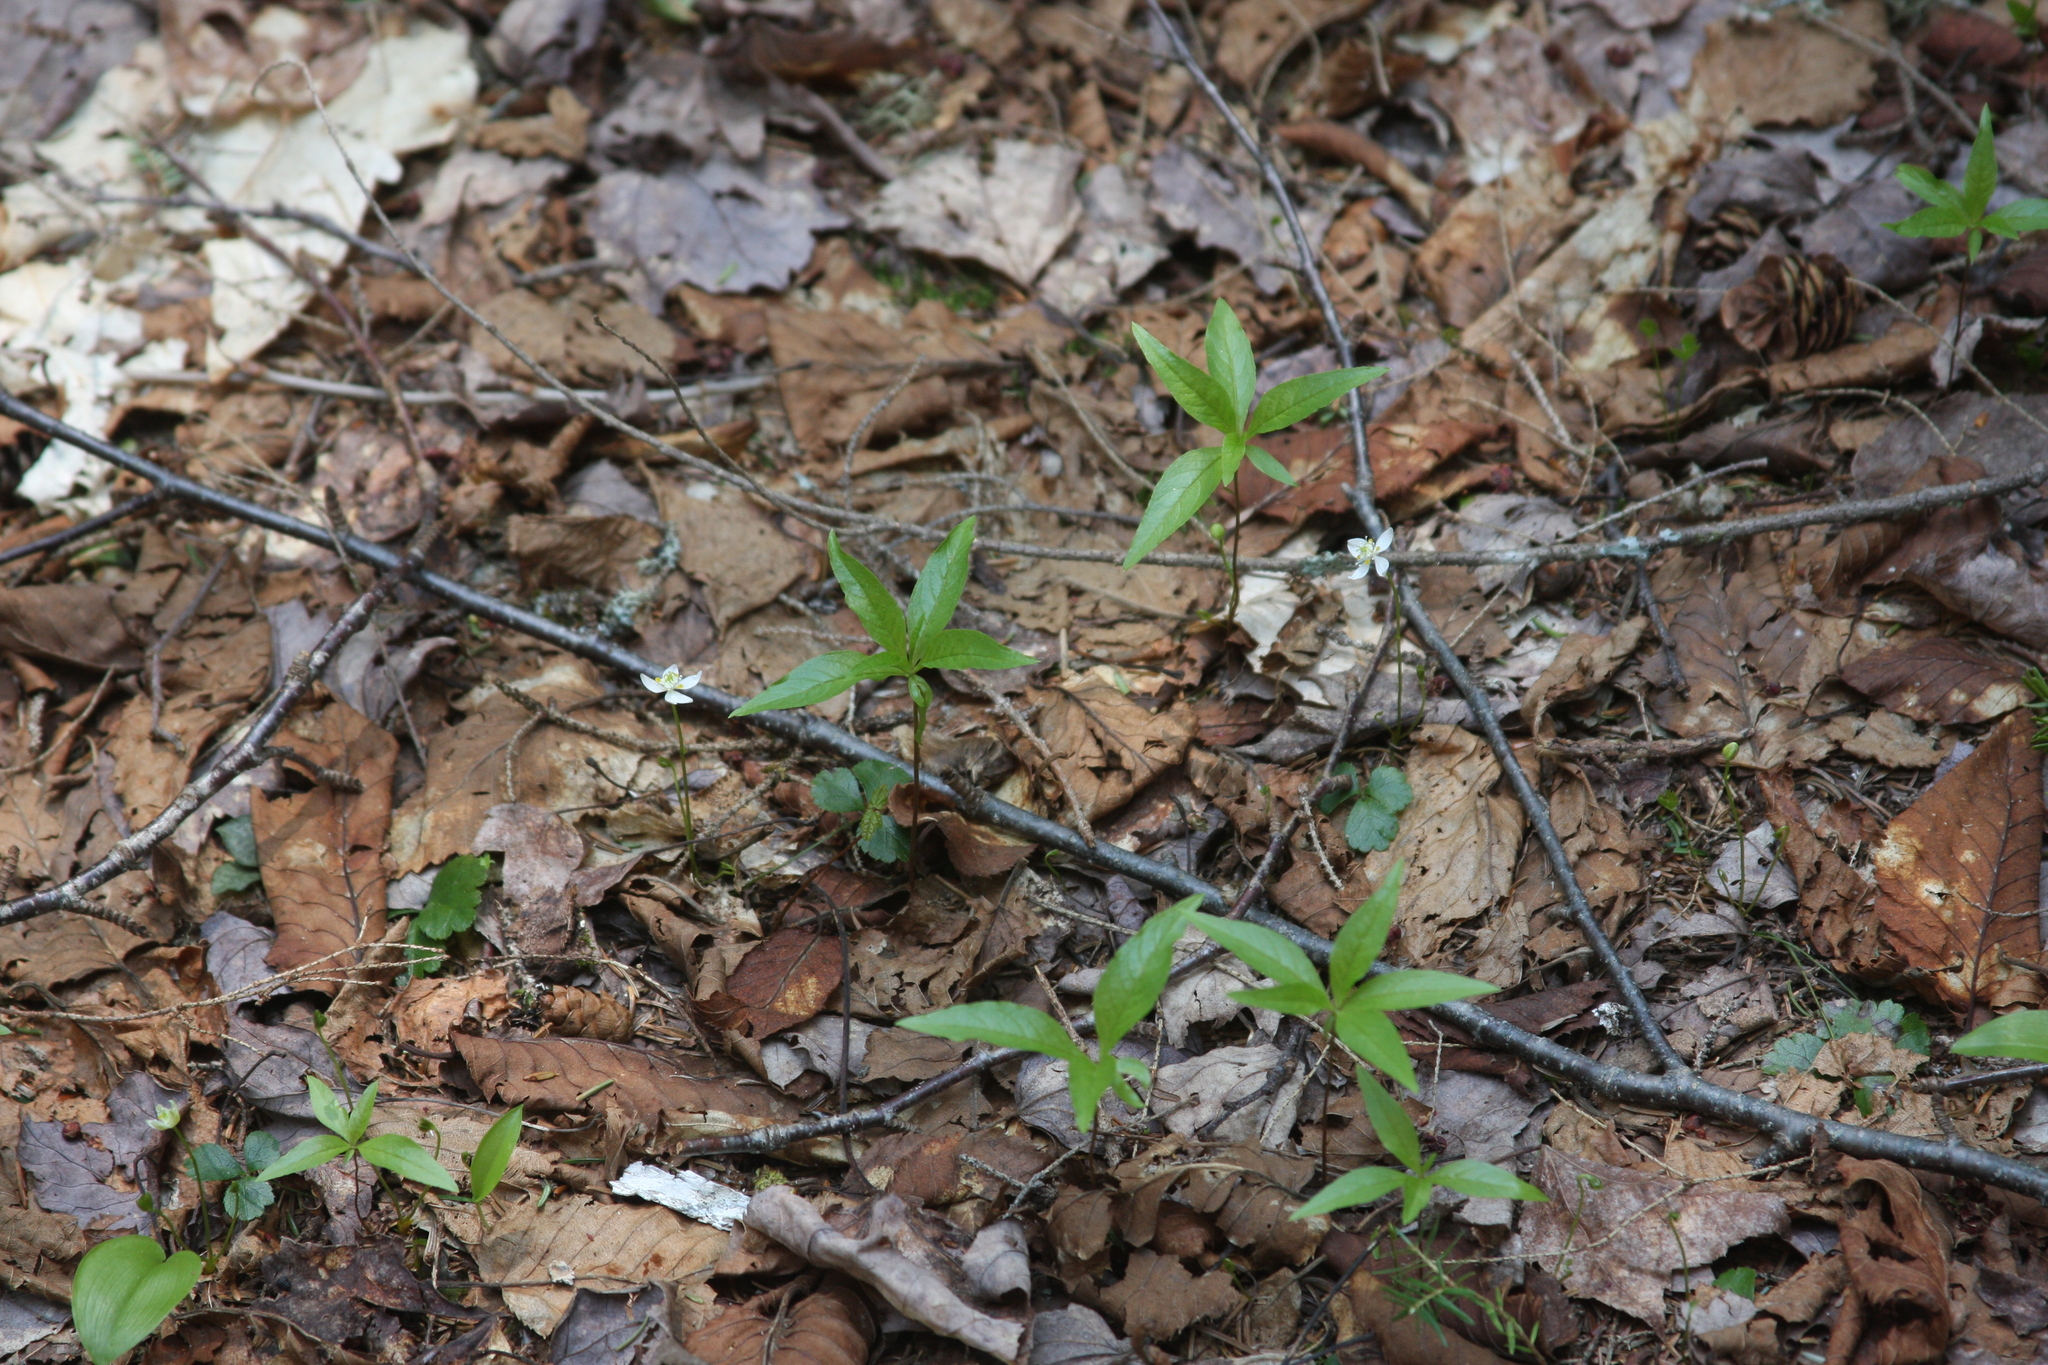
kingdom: Plantae
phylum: Tracheophyta
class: Magnoliopsida
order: Ericales
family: Primulaceae
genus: Lysimachia
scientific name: Lysimachia borealis
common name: American starflower
